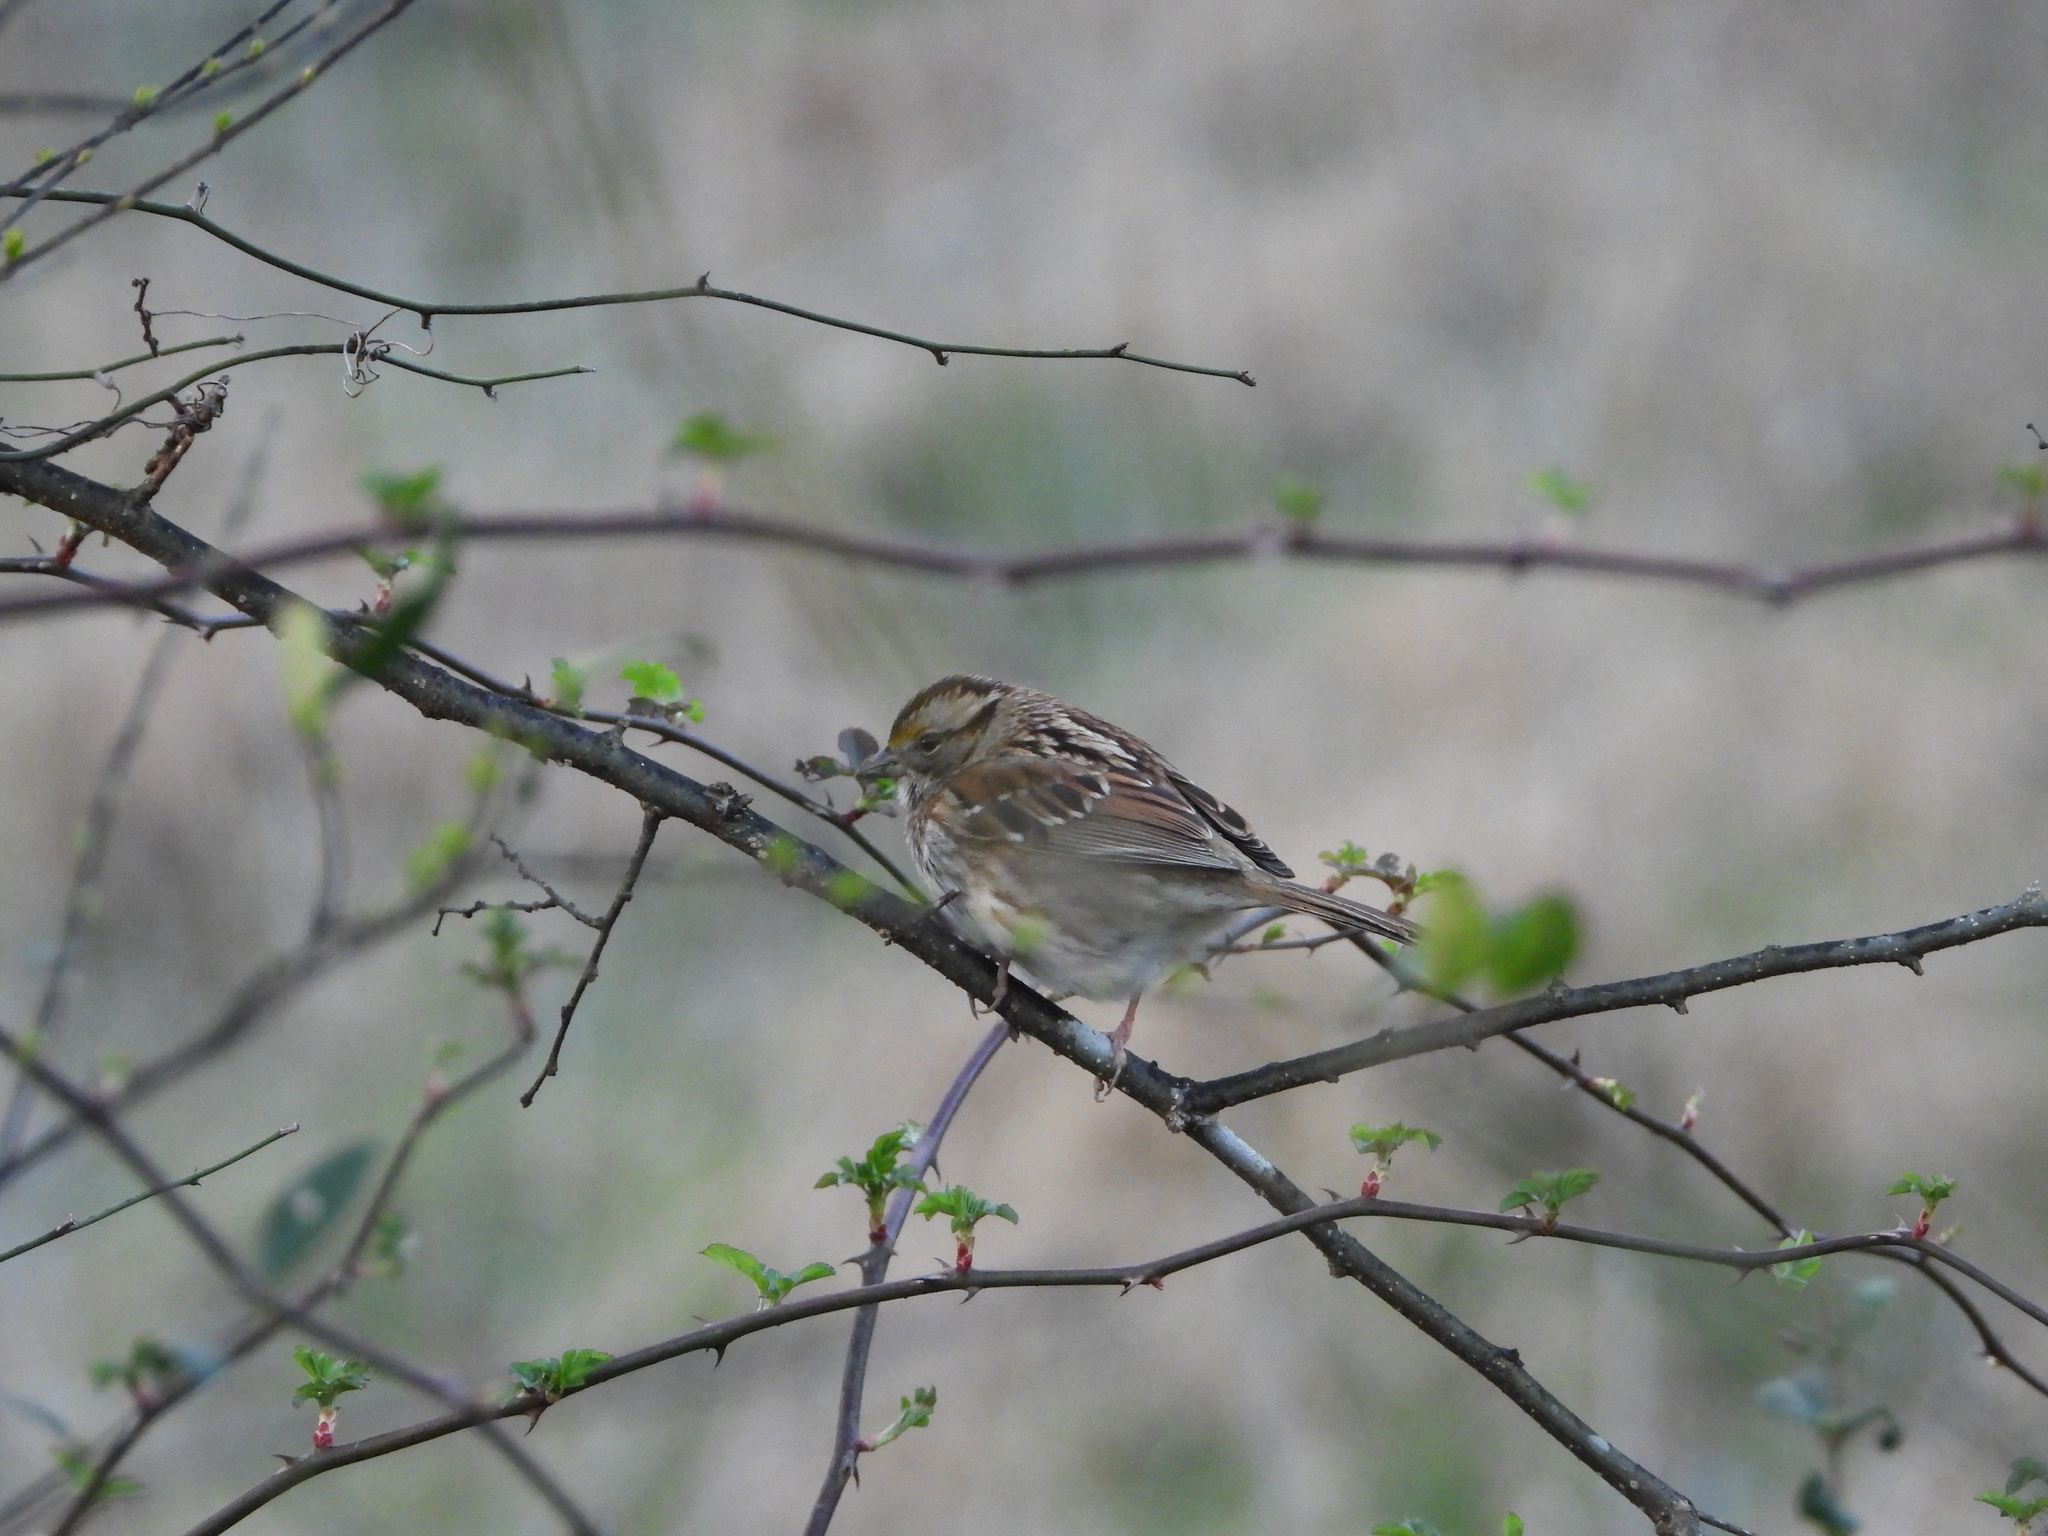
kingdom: Animalia
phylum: Chordata
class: Aves
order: Passeriformes
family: Passerellidae
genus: Zonotrichia
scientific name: Zonotrichia albicollis
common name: White-throated sparrow
